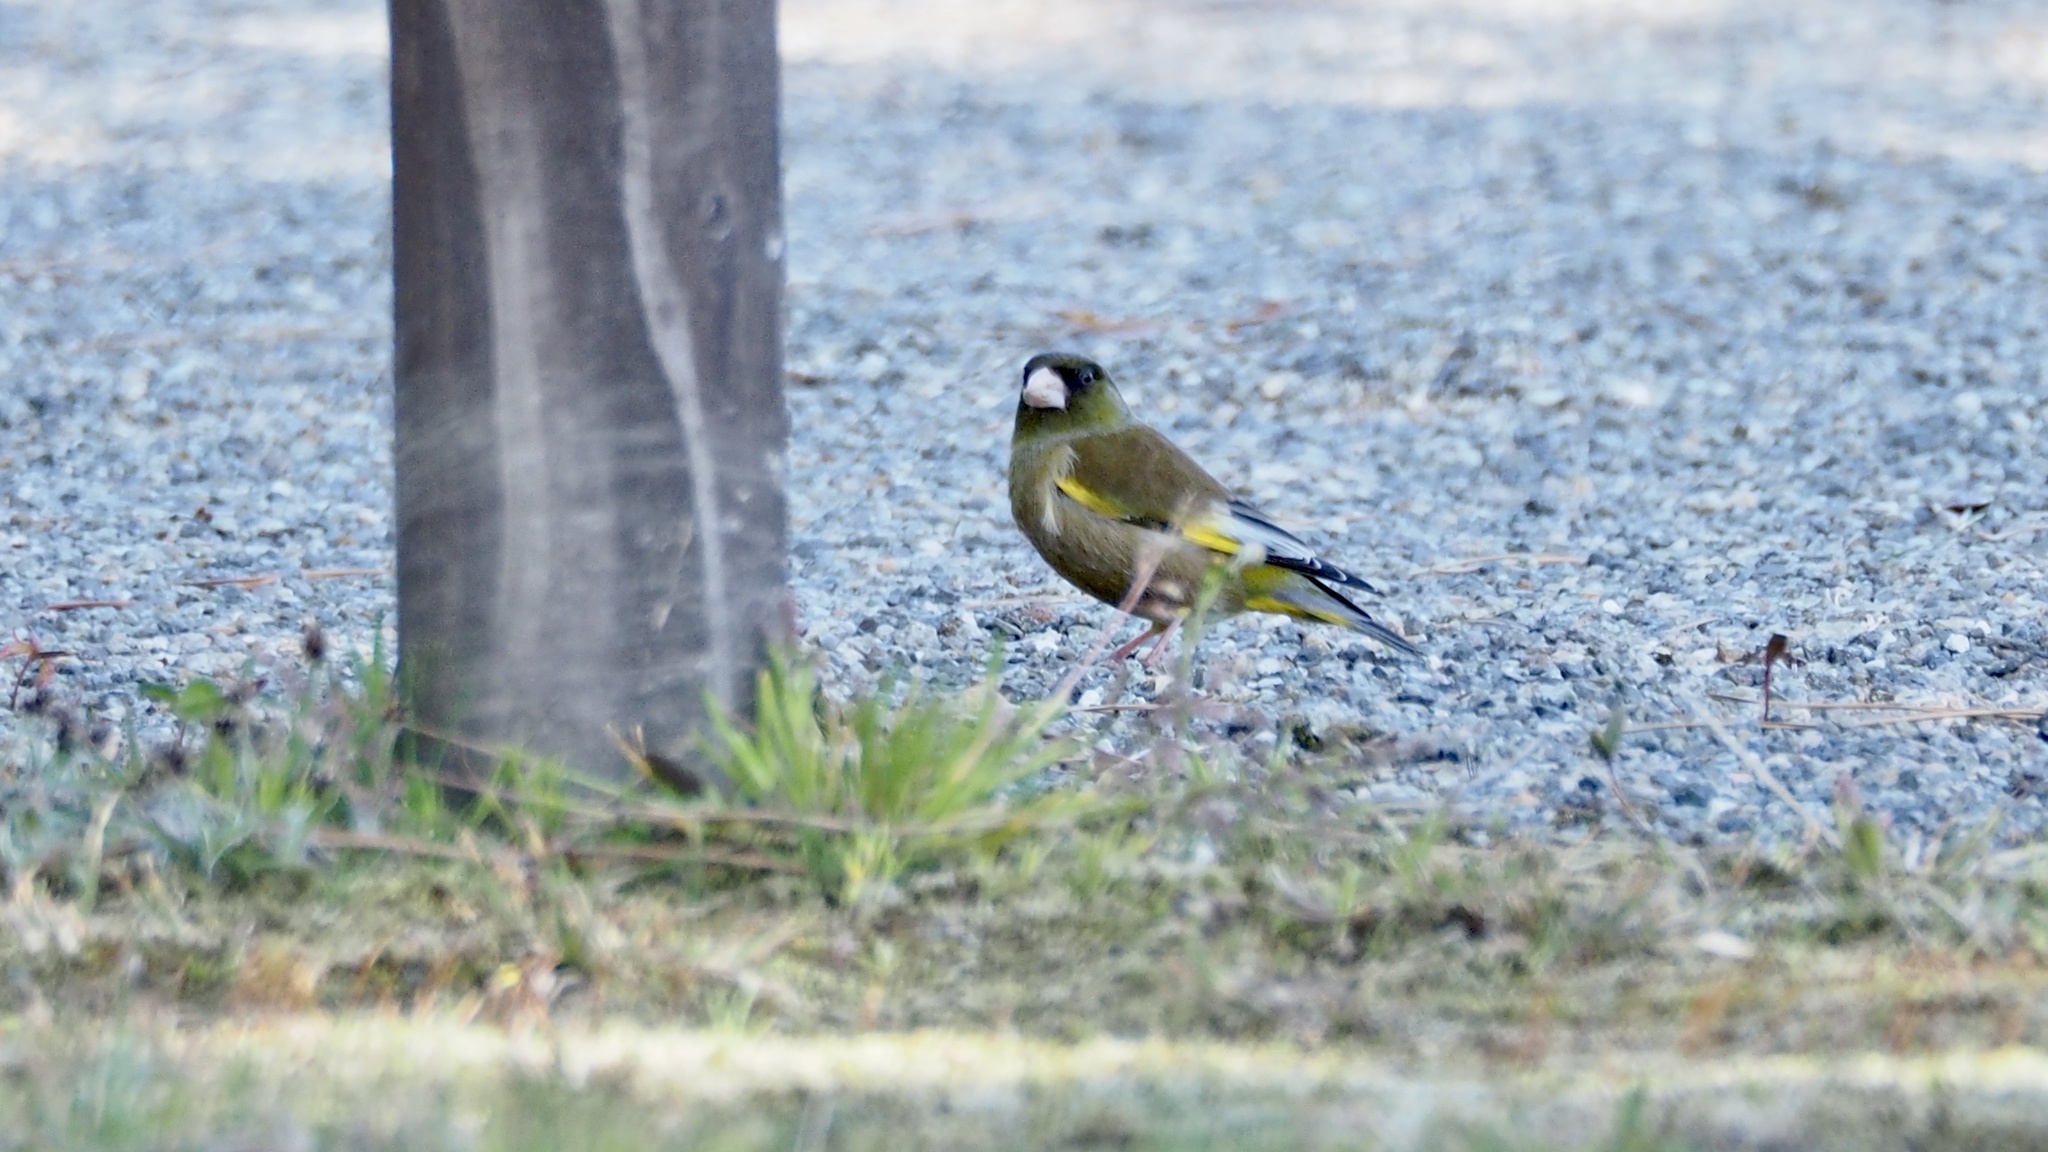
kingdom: Plantae
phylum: Tracheophyta
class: Liliopsida
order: Poales
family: Poaceae
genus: Chloris
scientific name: Chloris sinica
